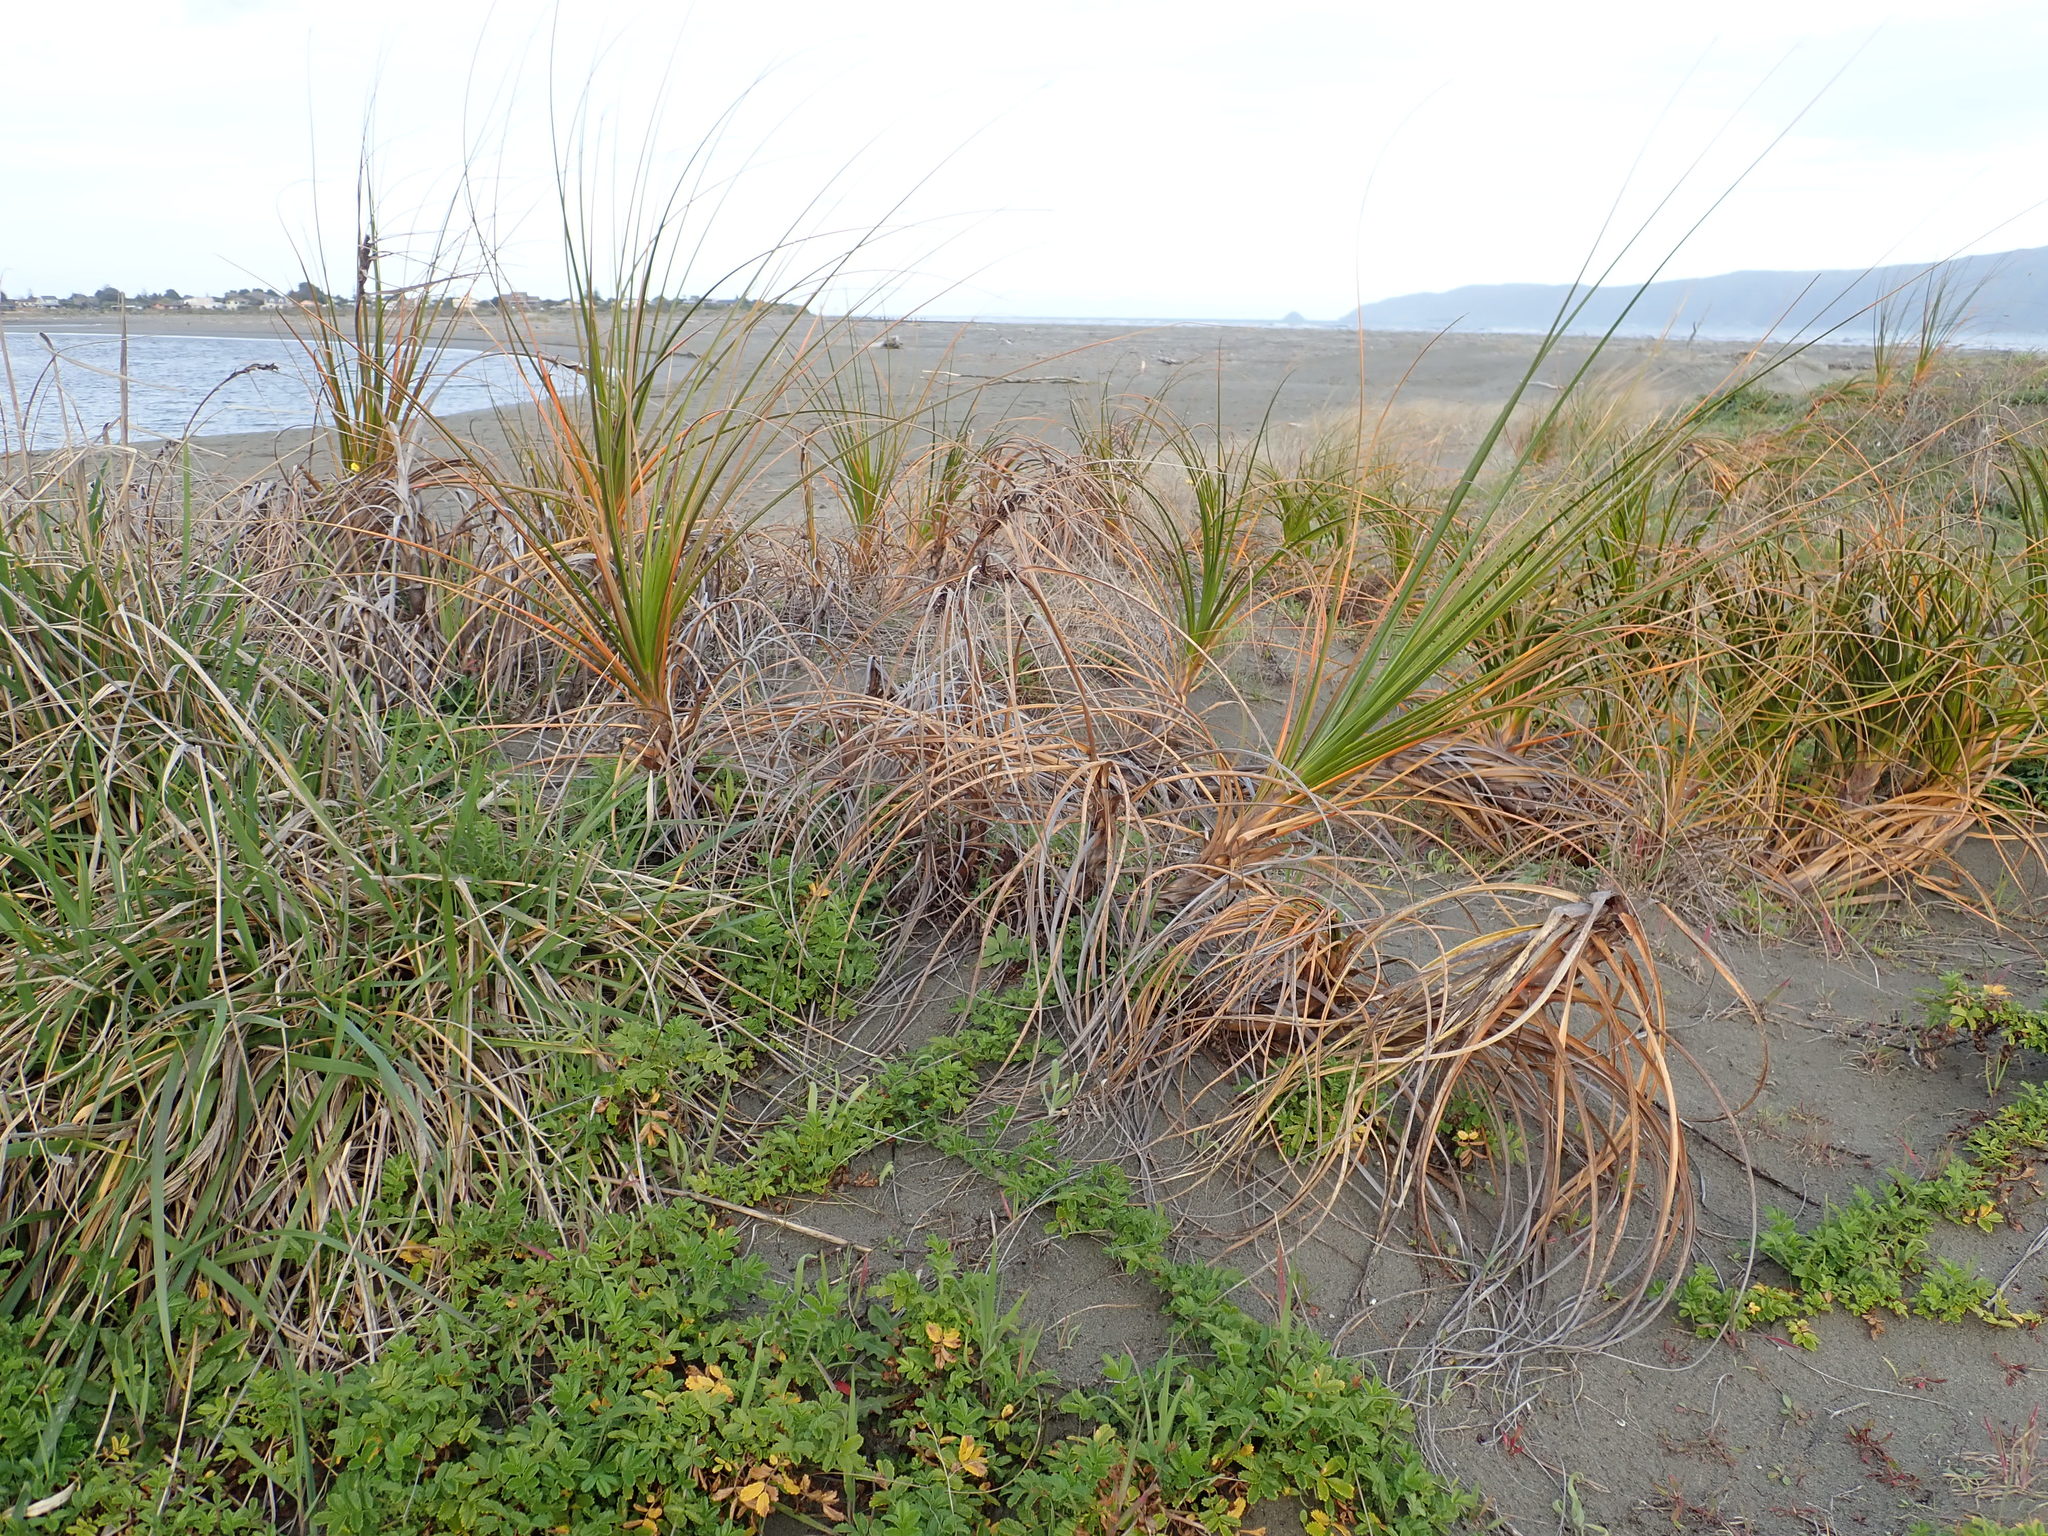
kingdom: Plantae
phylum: Tracheophyta
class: Liliopsida
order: Poales
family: Cyperaceae
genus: Ficinia
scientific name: Ficinia spiralis
